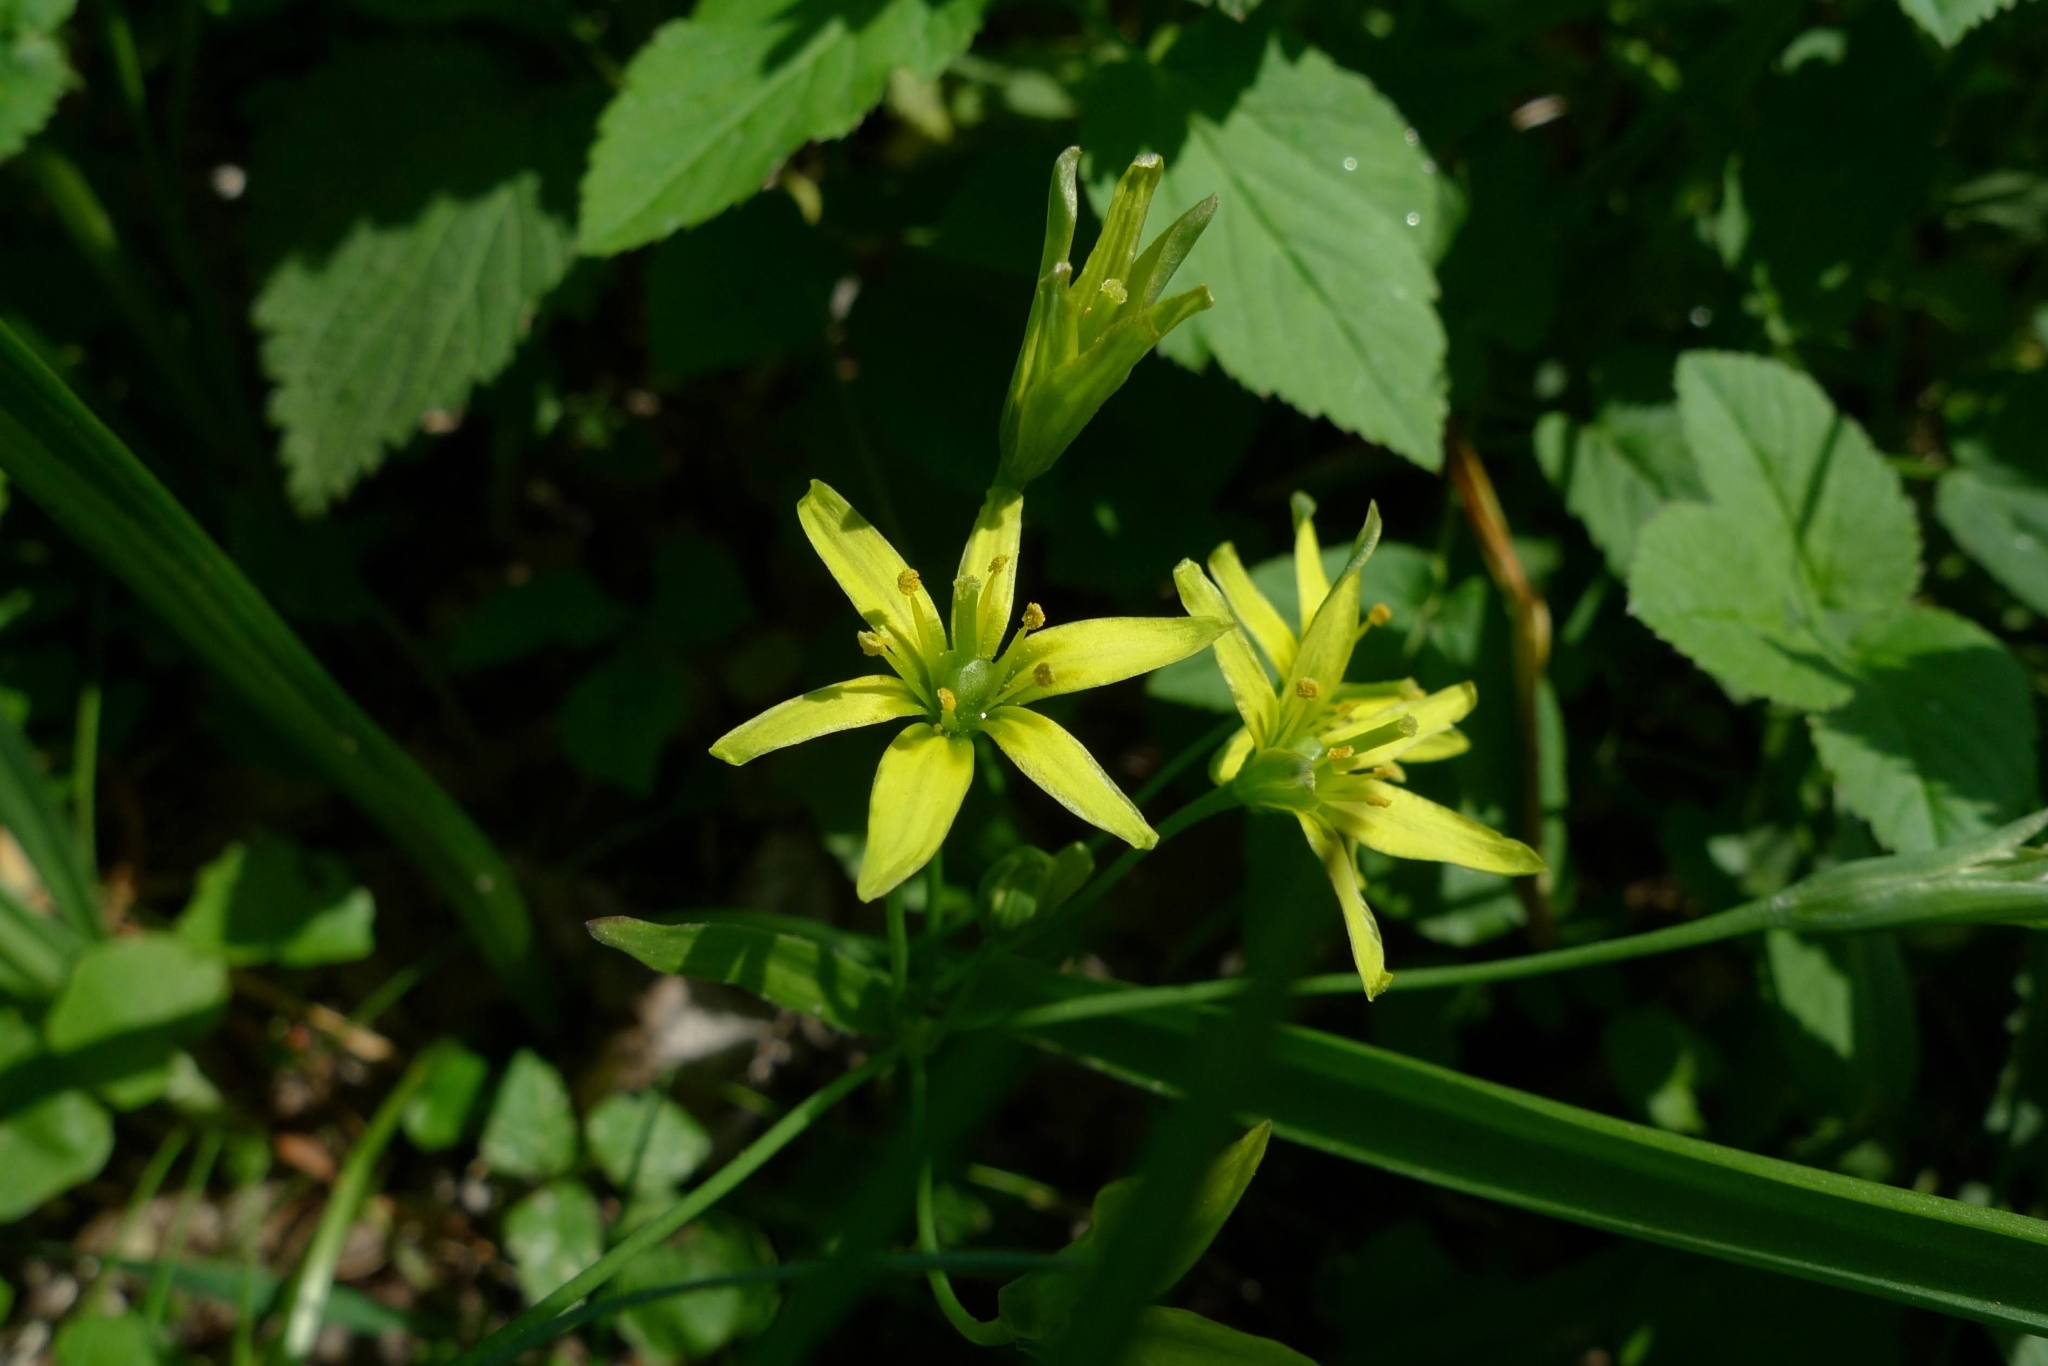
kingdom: Plantae
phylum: Tracheophyta
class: Liliopsida
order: Liliales
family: Liliaceae
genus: Gagea
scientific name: Gagea lutea
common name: Yellow star-of-bethlehem
